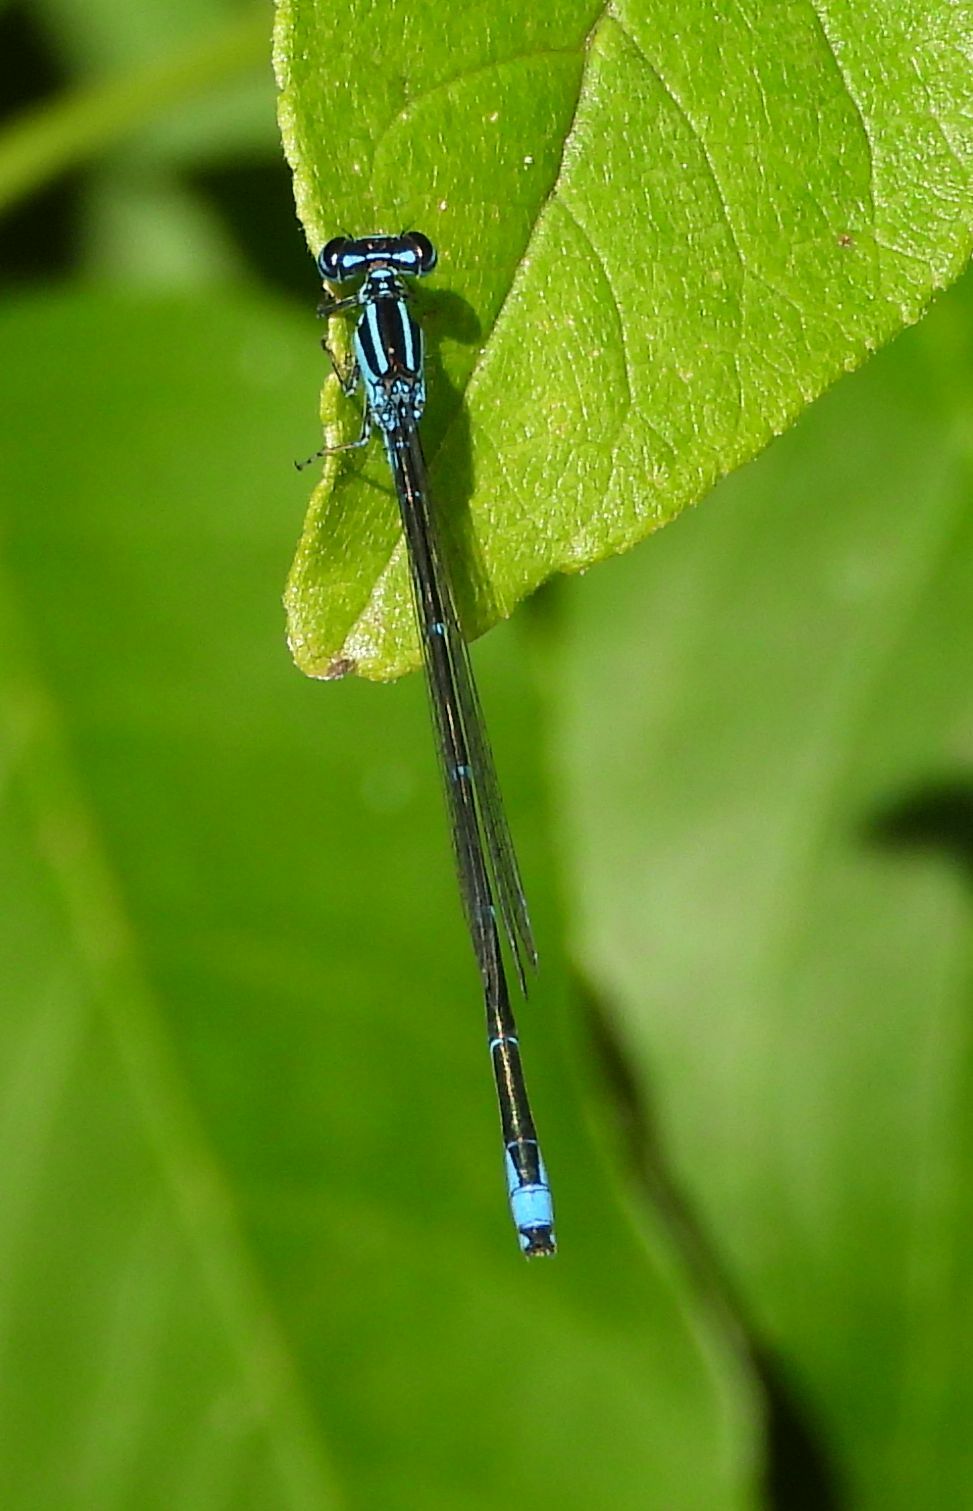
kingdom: Animalia
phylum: Arthropoda
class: Insecta
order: Odonata
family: Coenagrionidae
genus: Enallagma
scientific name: Enallagma exsulans
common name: Stream bluet
